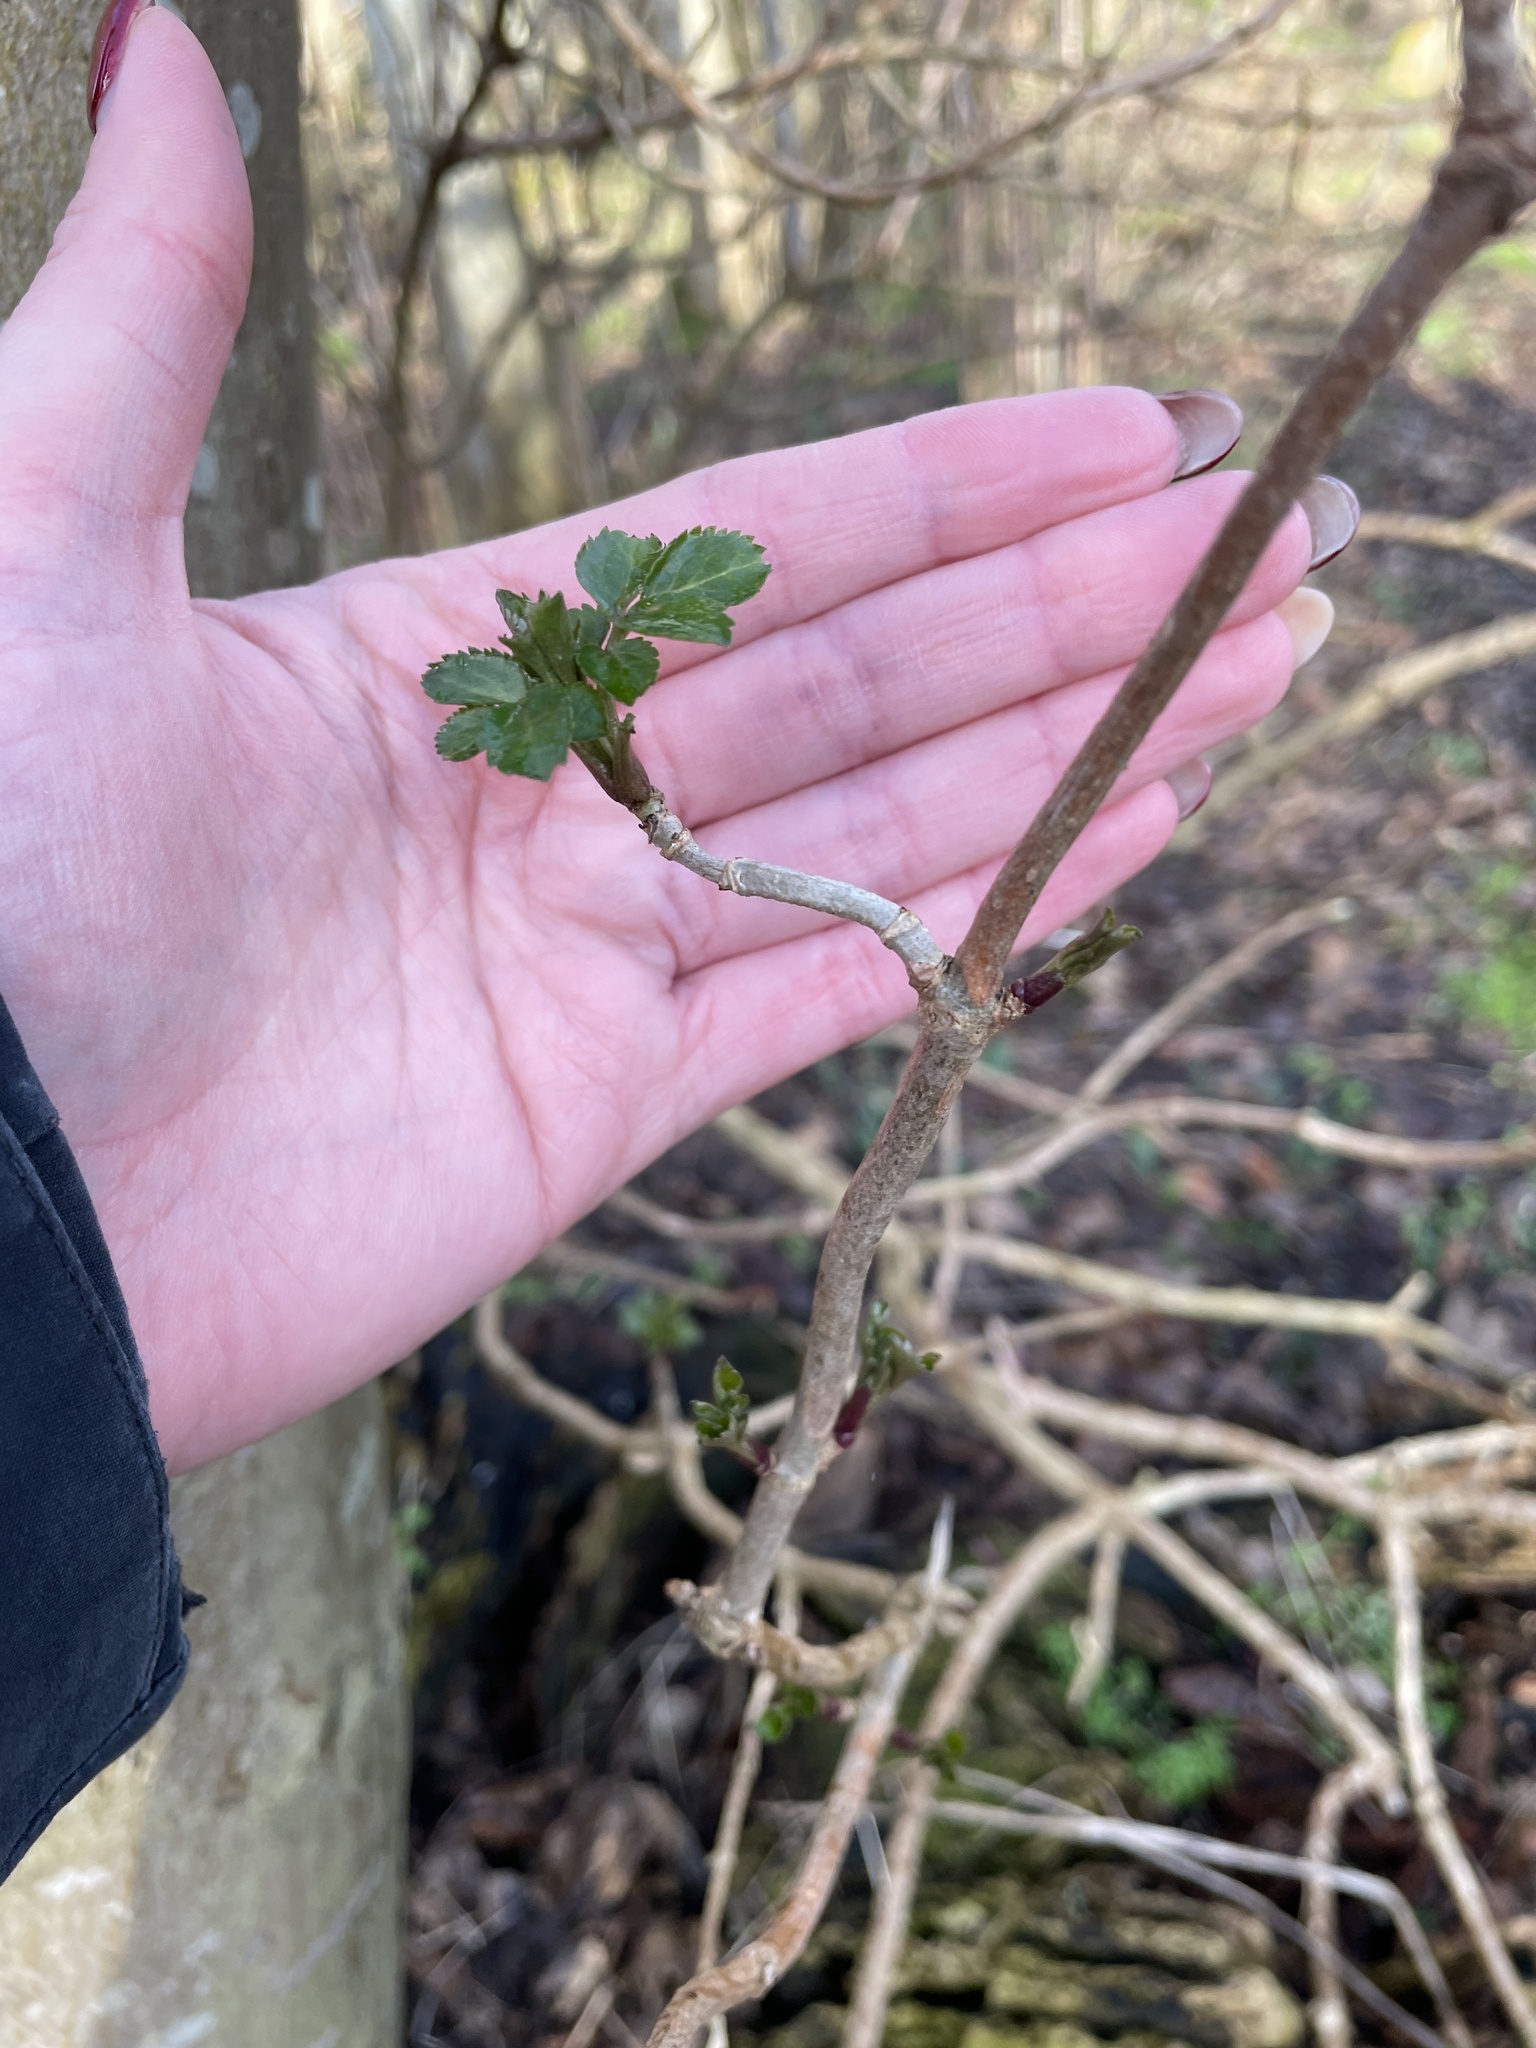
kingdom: Plantae
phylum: Tracheophyta
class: Magnoliopsida
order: Dipsacales
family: Viburnaceae
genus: Sambucus
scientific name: Sambucus nigra
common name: Elder
